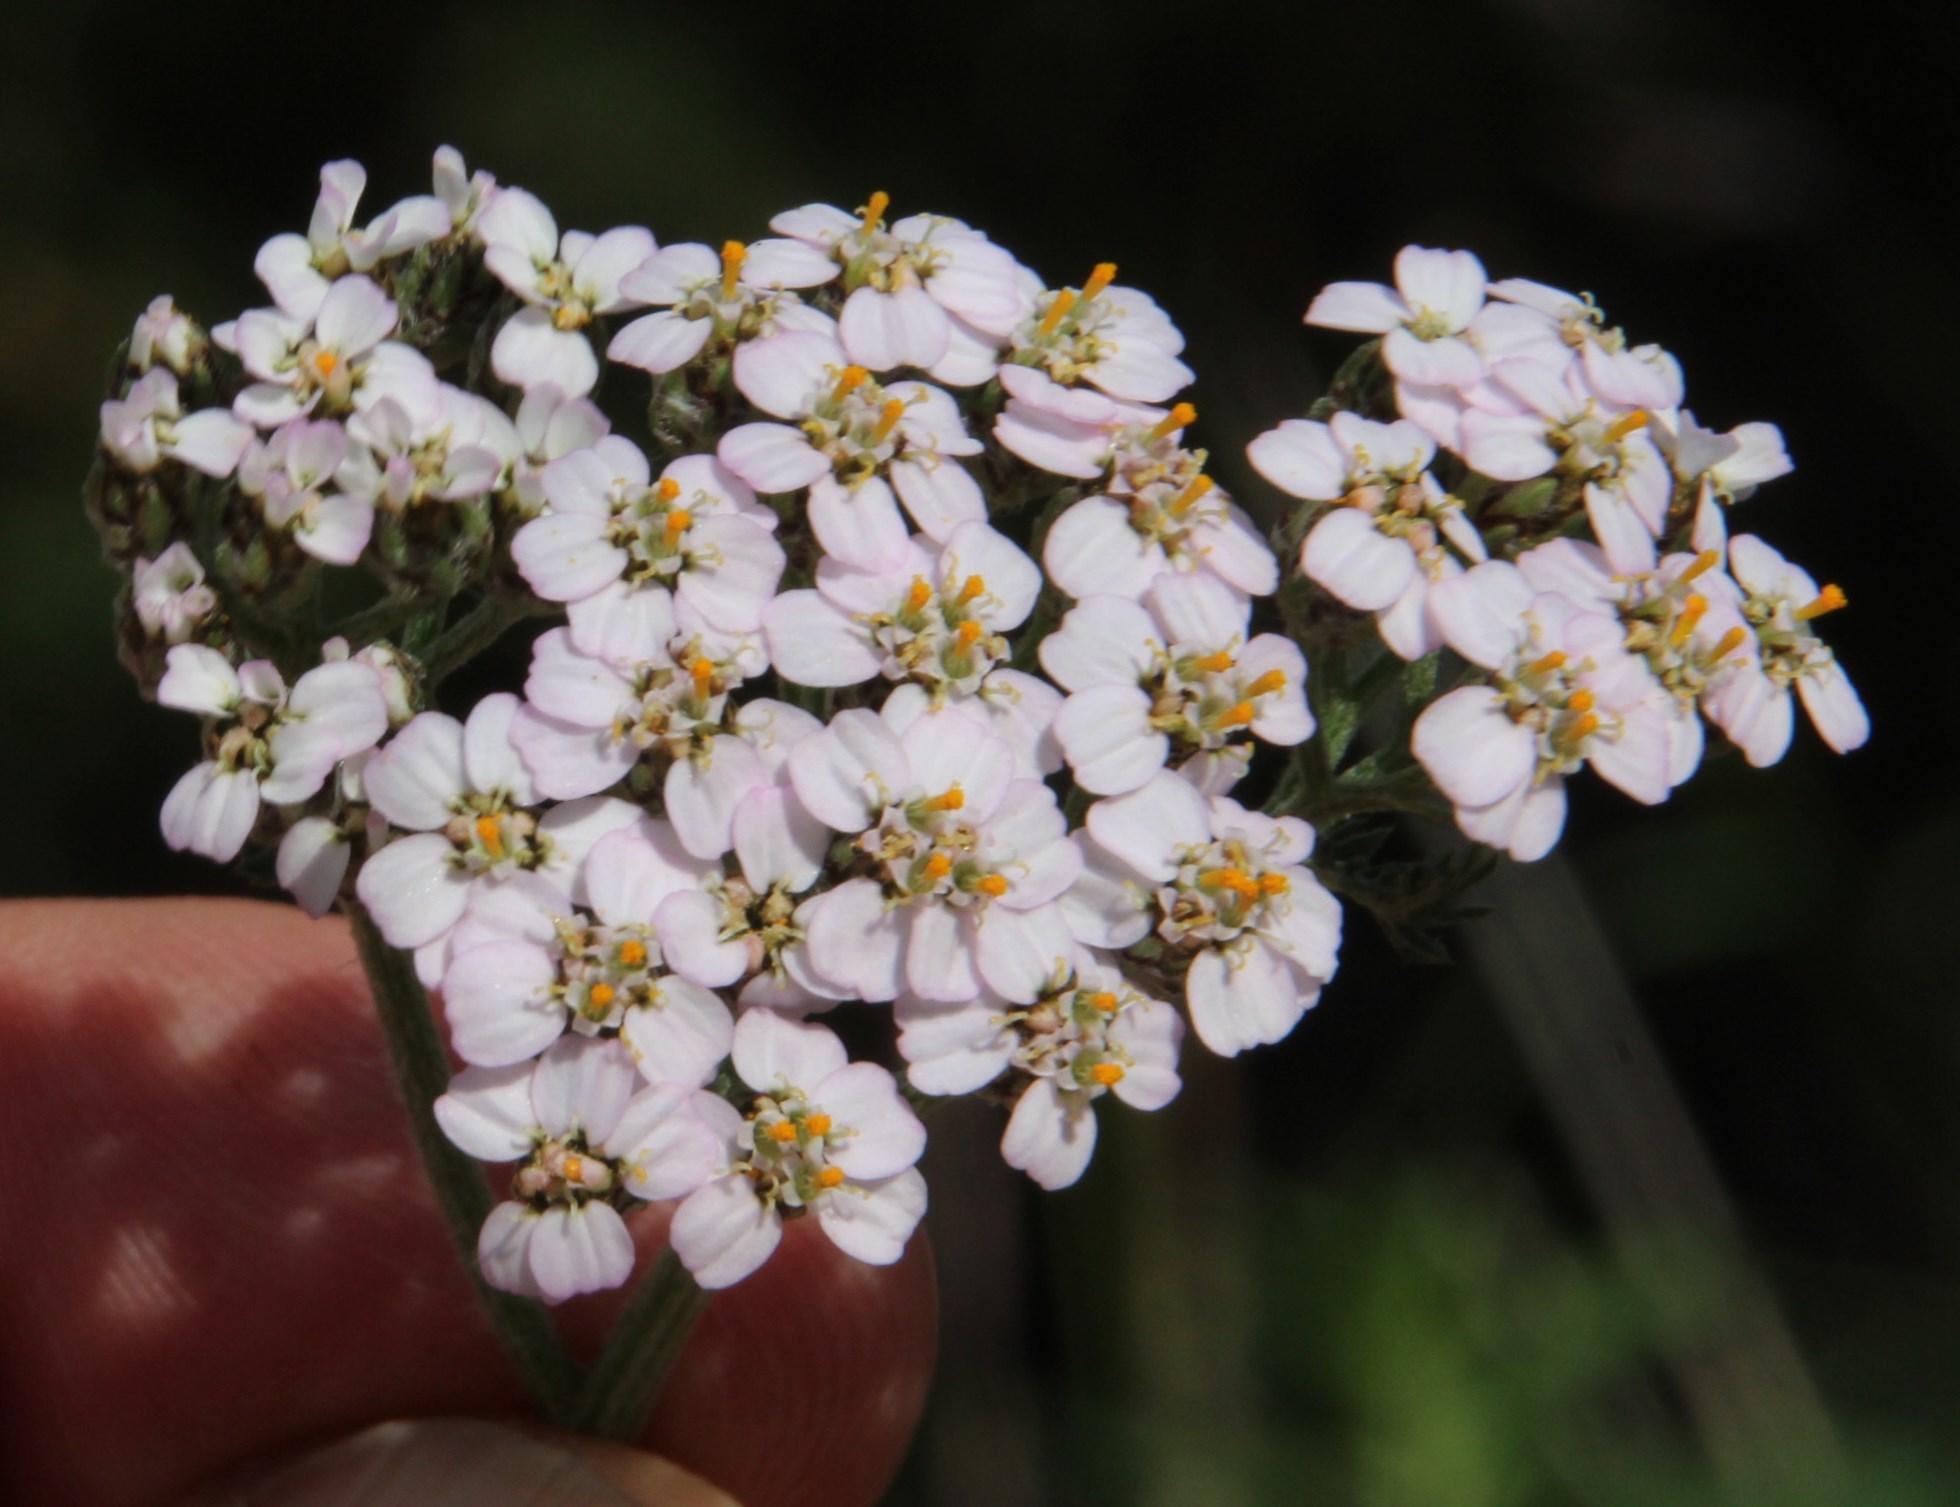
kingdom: Plantae
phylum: Tracheophyta
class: Magnoliopsida
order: Asterales
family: Asteraceae
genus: Achillea
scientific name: Achillea millefolium
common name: Yarrow
